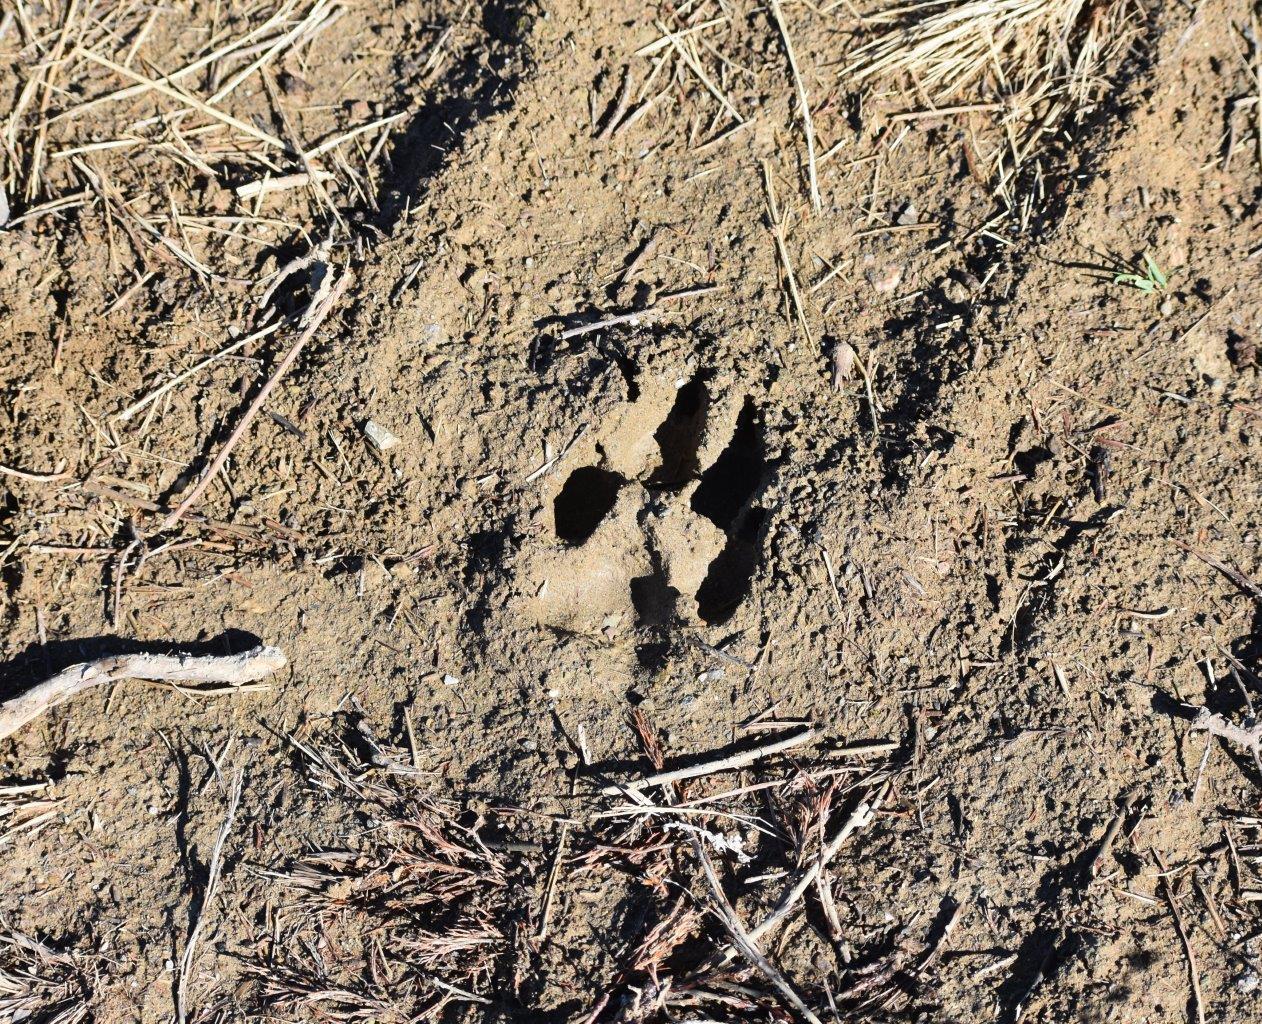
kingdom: Animalia
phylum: Chordata
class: Mammalia
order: Carnivora
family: Canidae
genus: Canis
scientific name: Canis lupus
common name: Gray wolf
